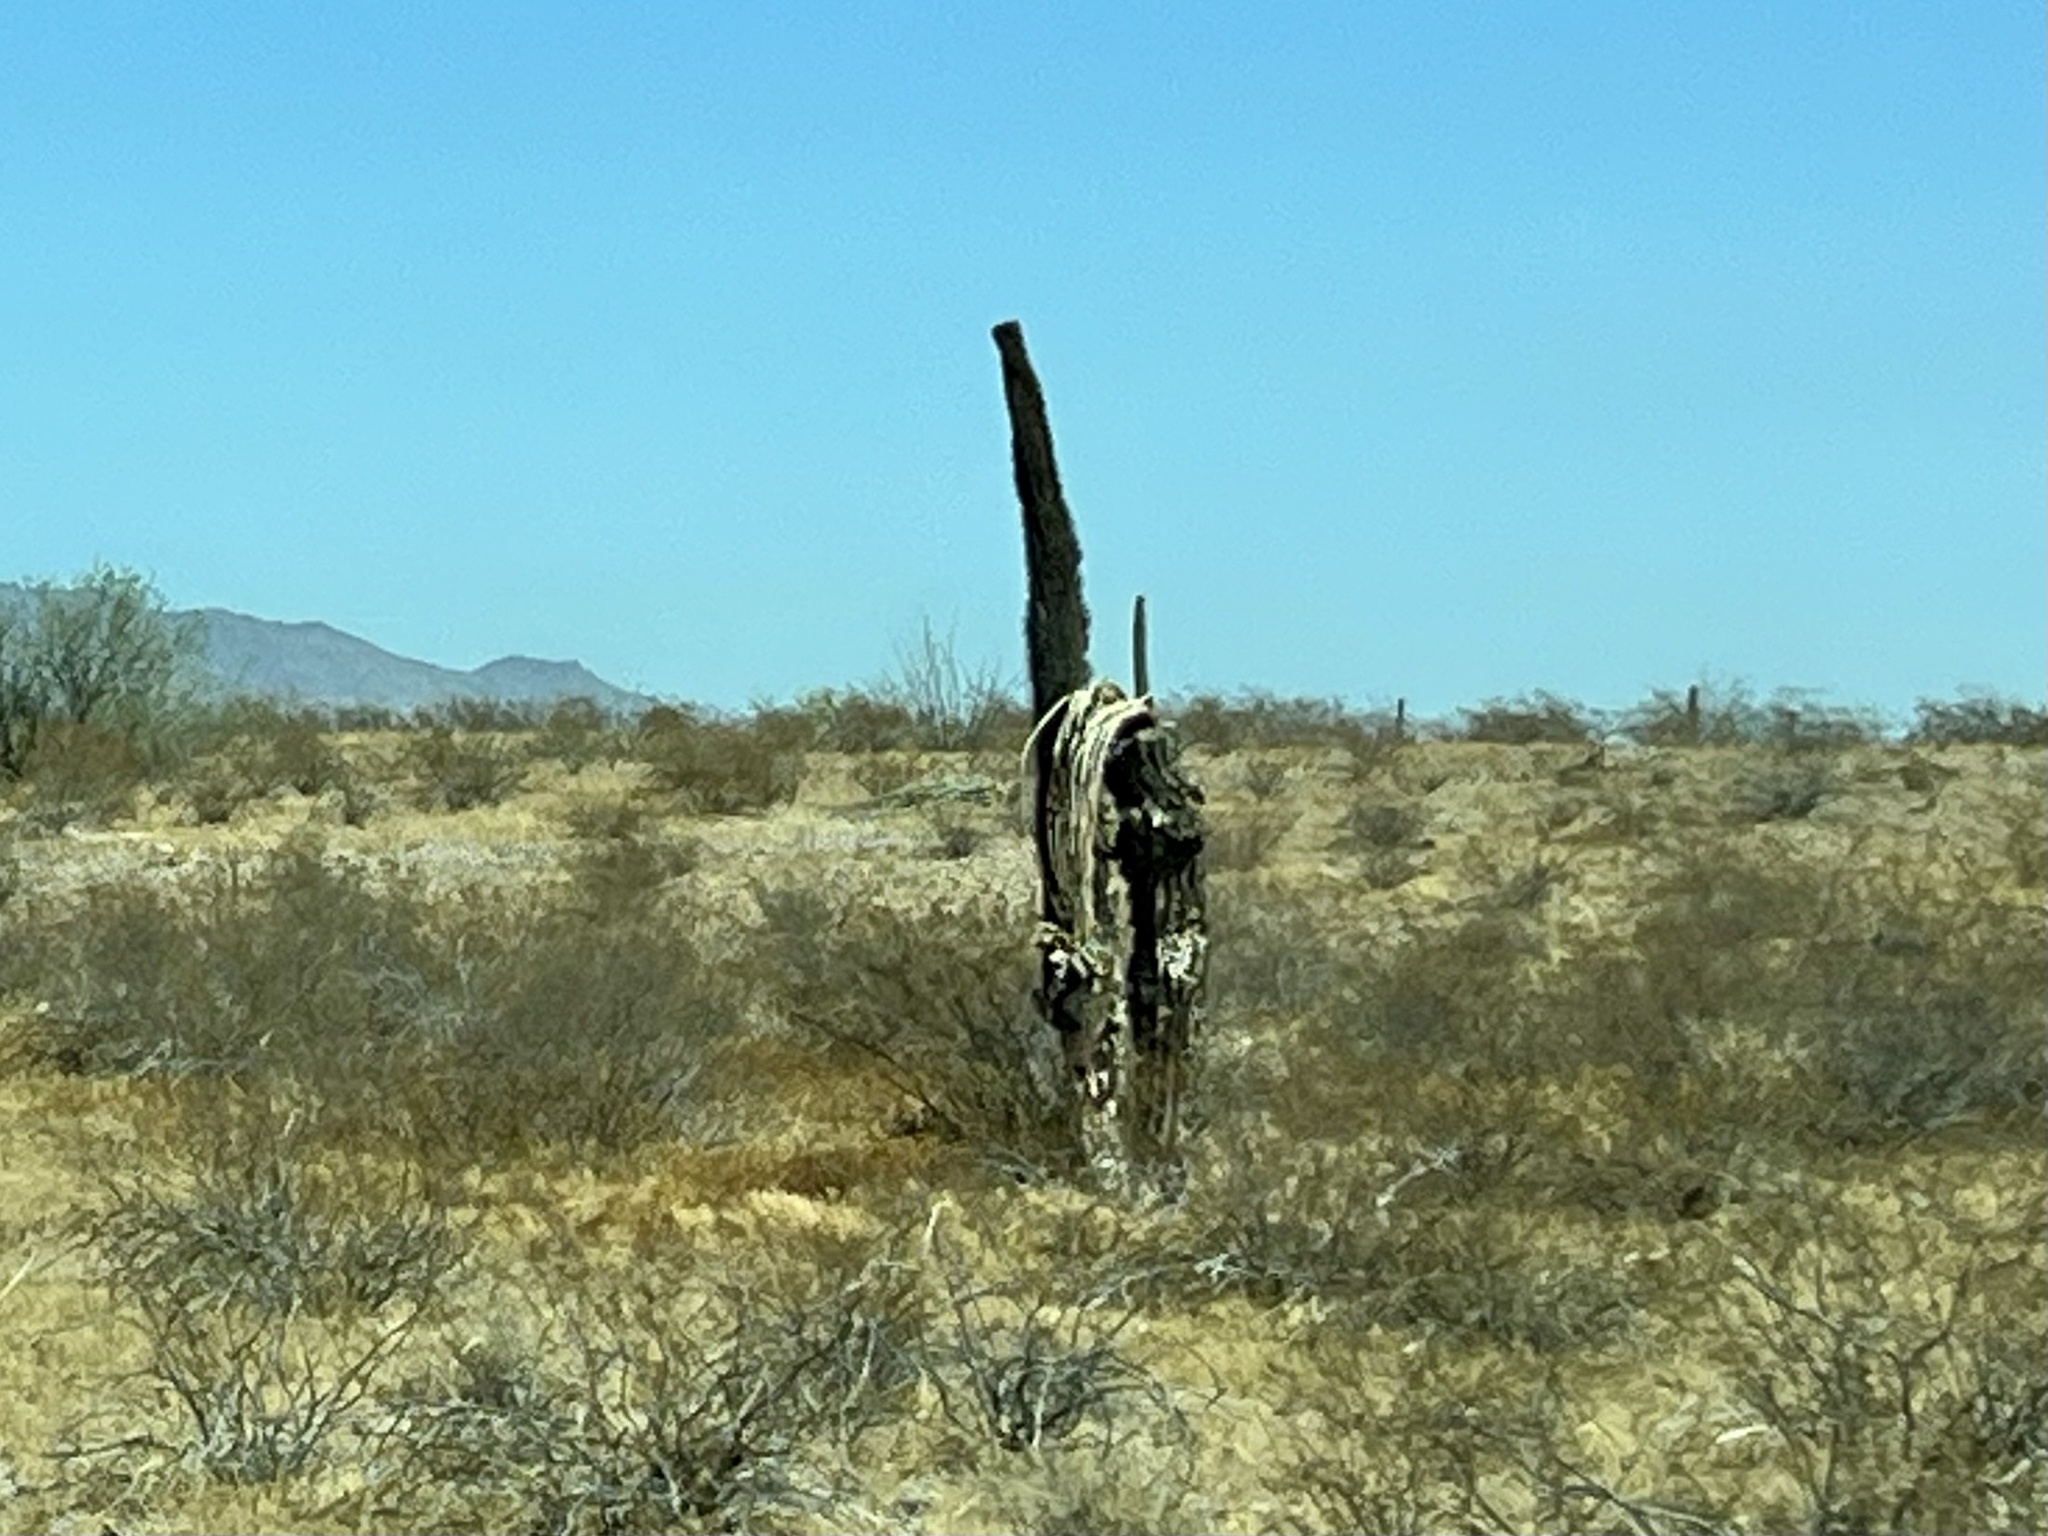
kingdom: Plantae
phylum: Tracheophyta
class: Magnoliopsida
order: Caryophyllales
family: Cactaceae
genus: Carnegiea
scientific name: Carnegiea gigantea
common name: Saguaro
